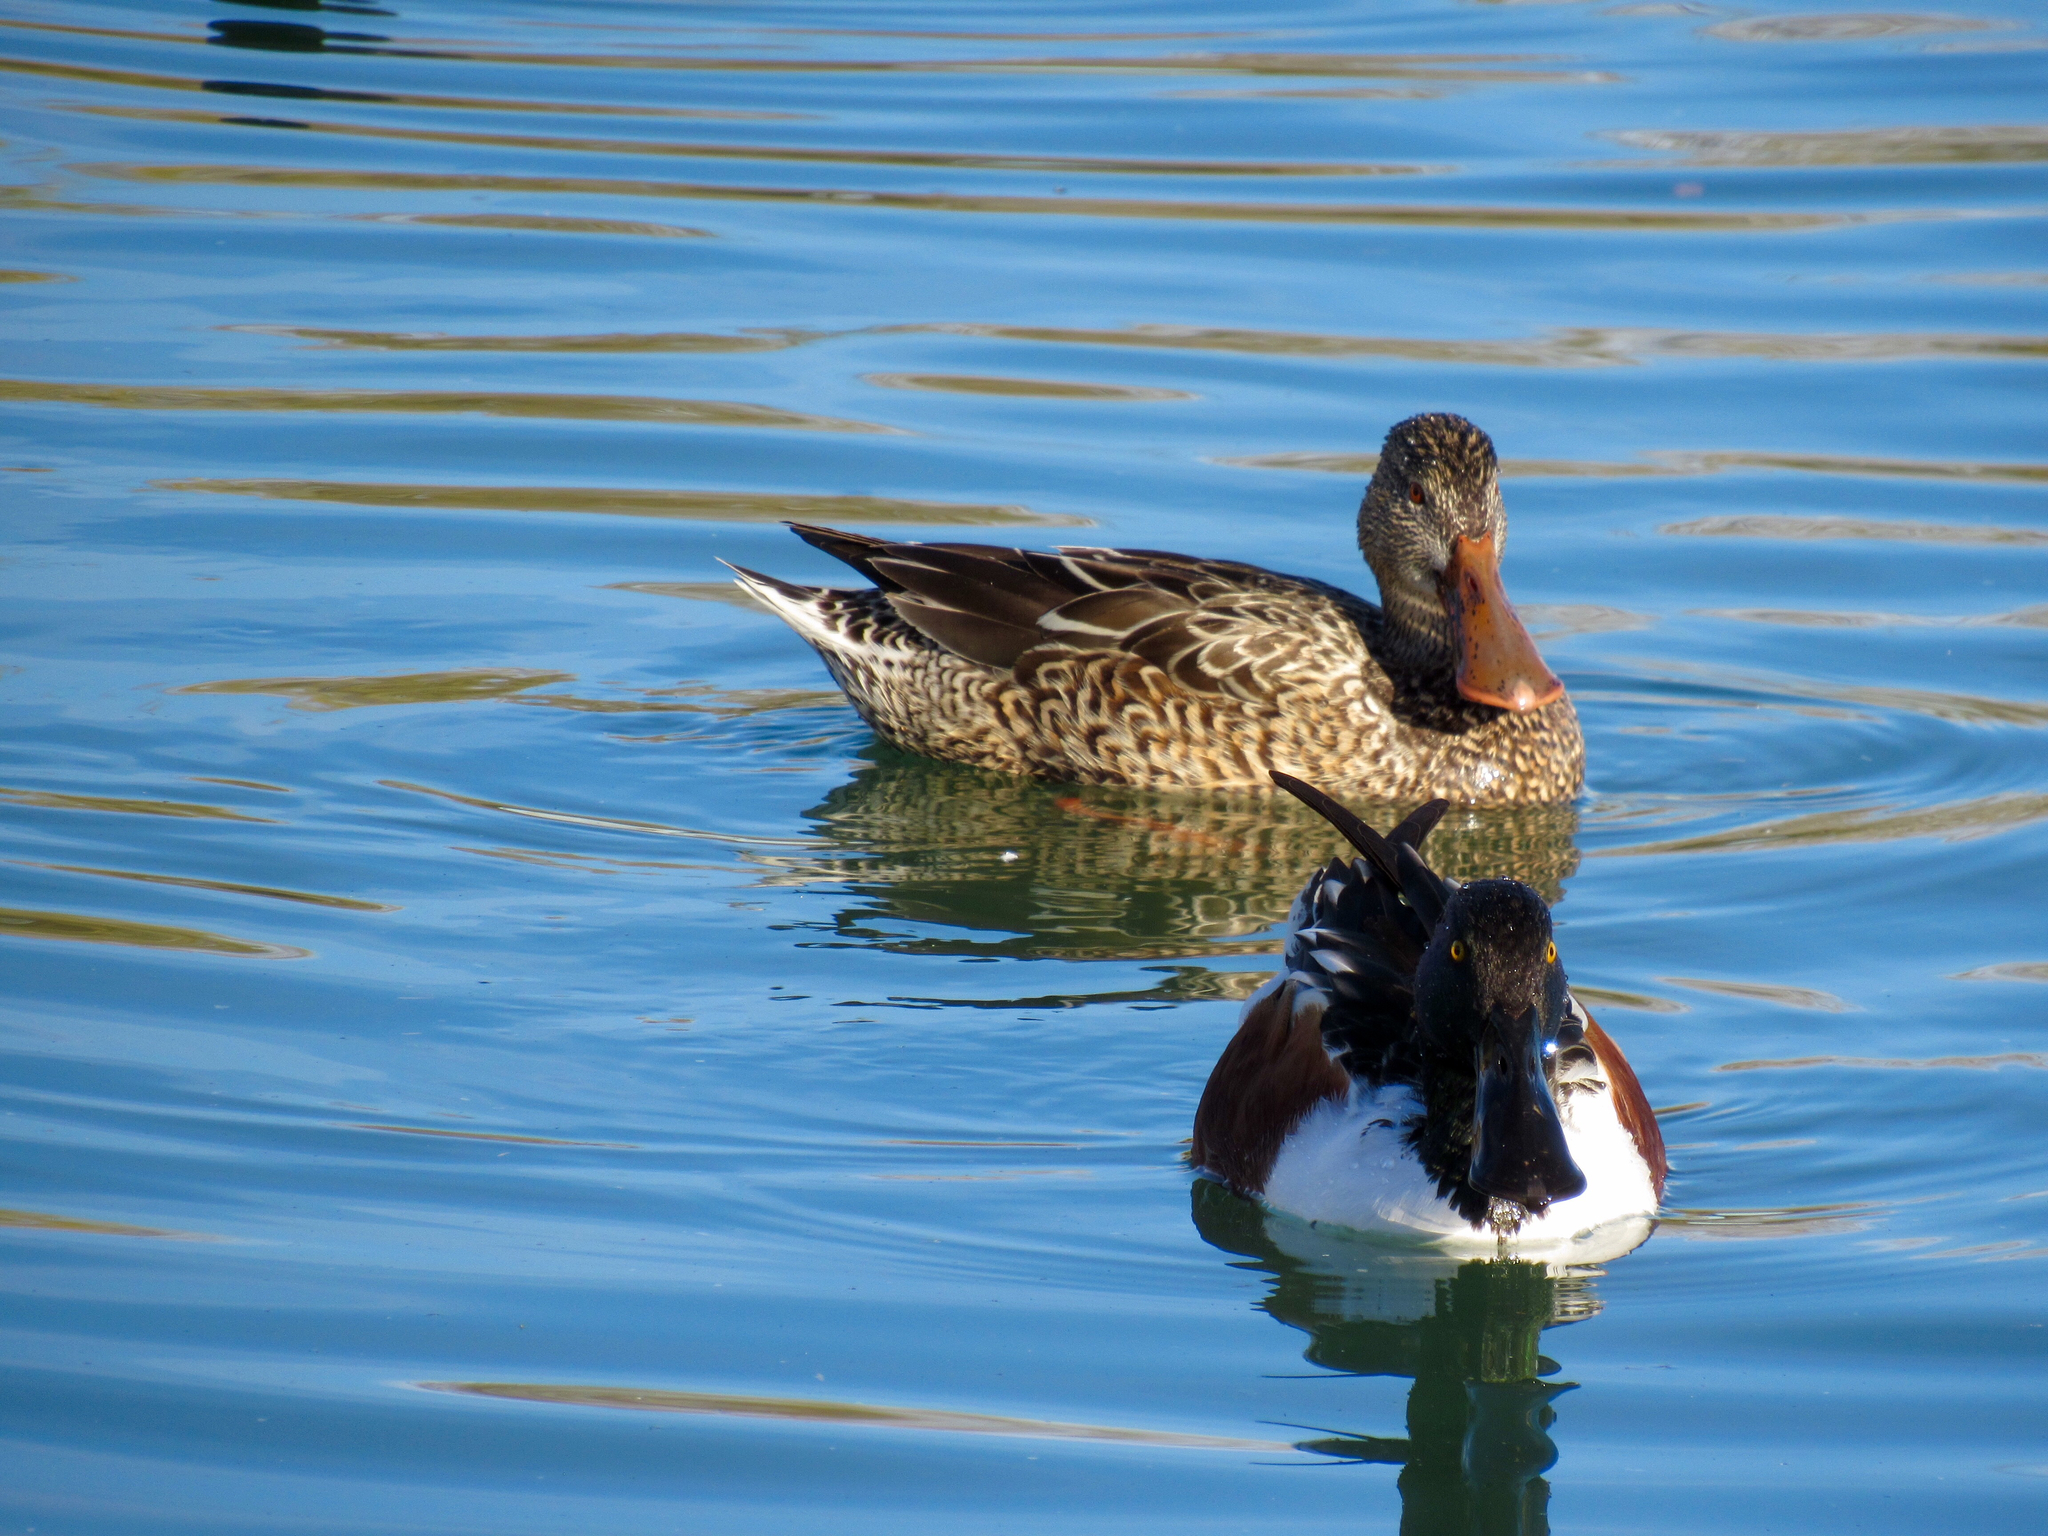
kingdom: Animalia
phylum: Chordata
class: Aves
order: Anseriformes
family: Anatidae
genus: Spatula
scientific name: Spatula clypeata
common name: Northern shoveler
